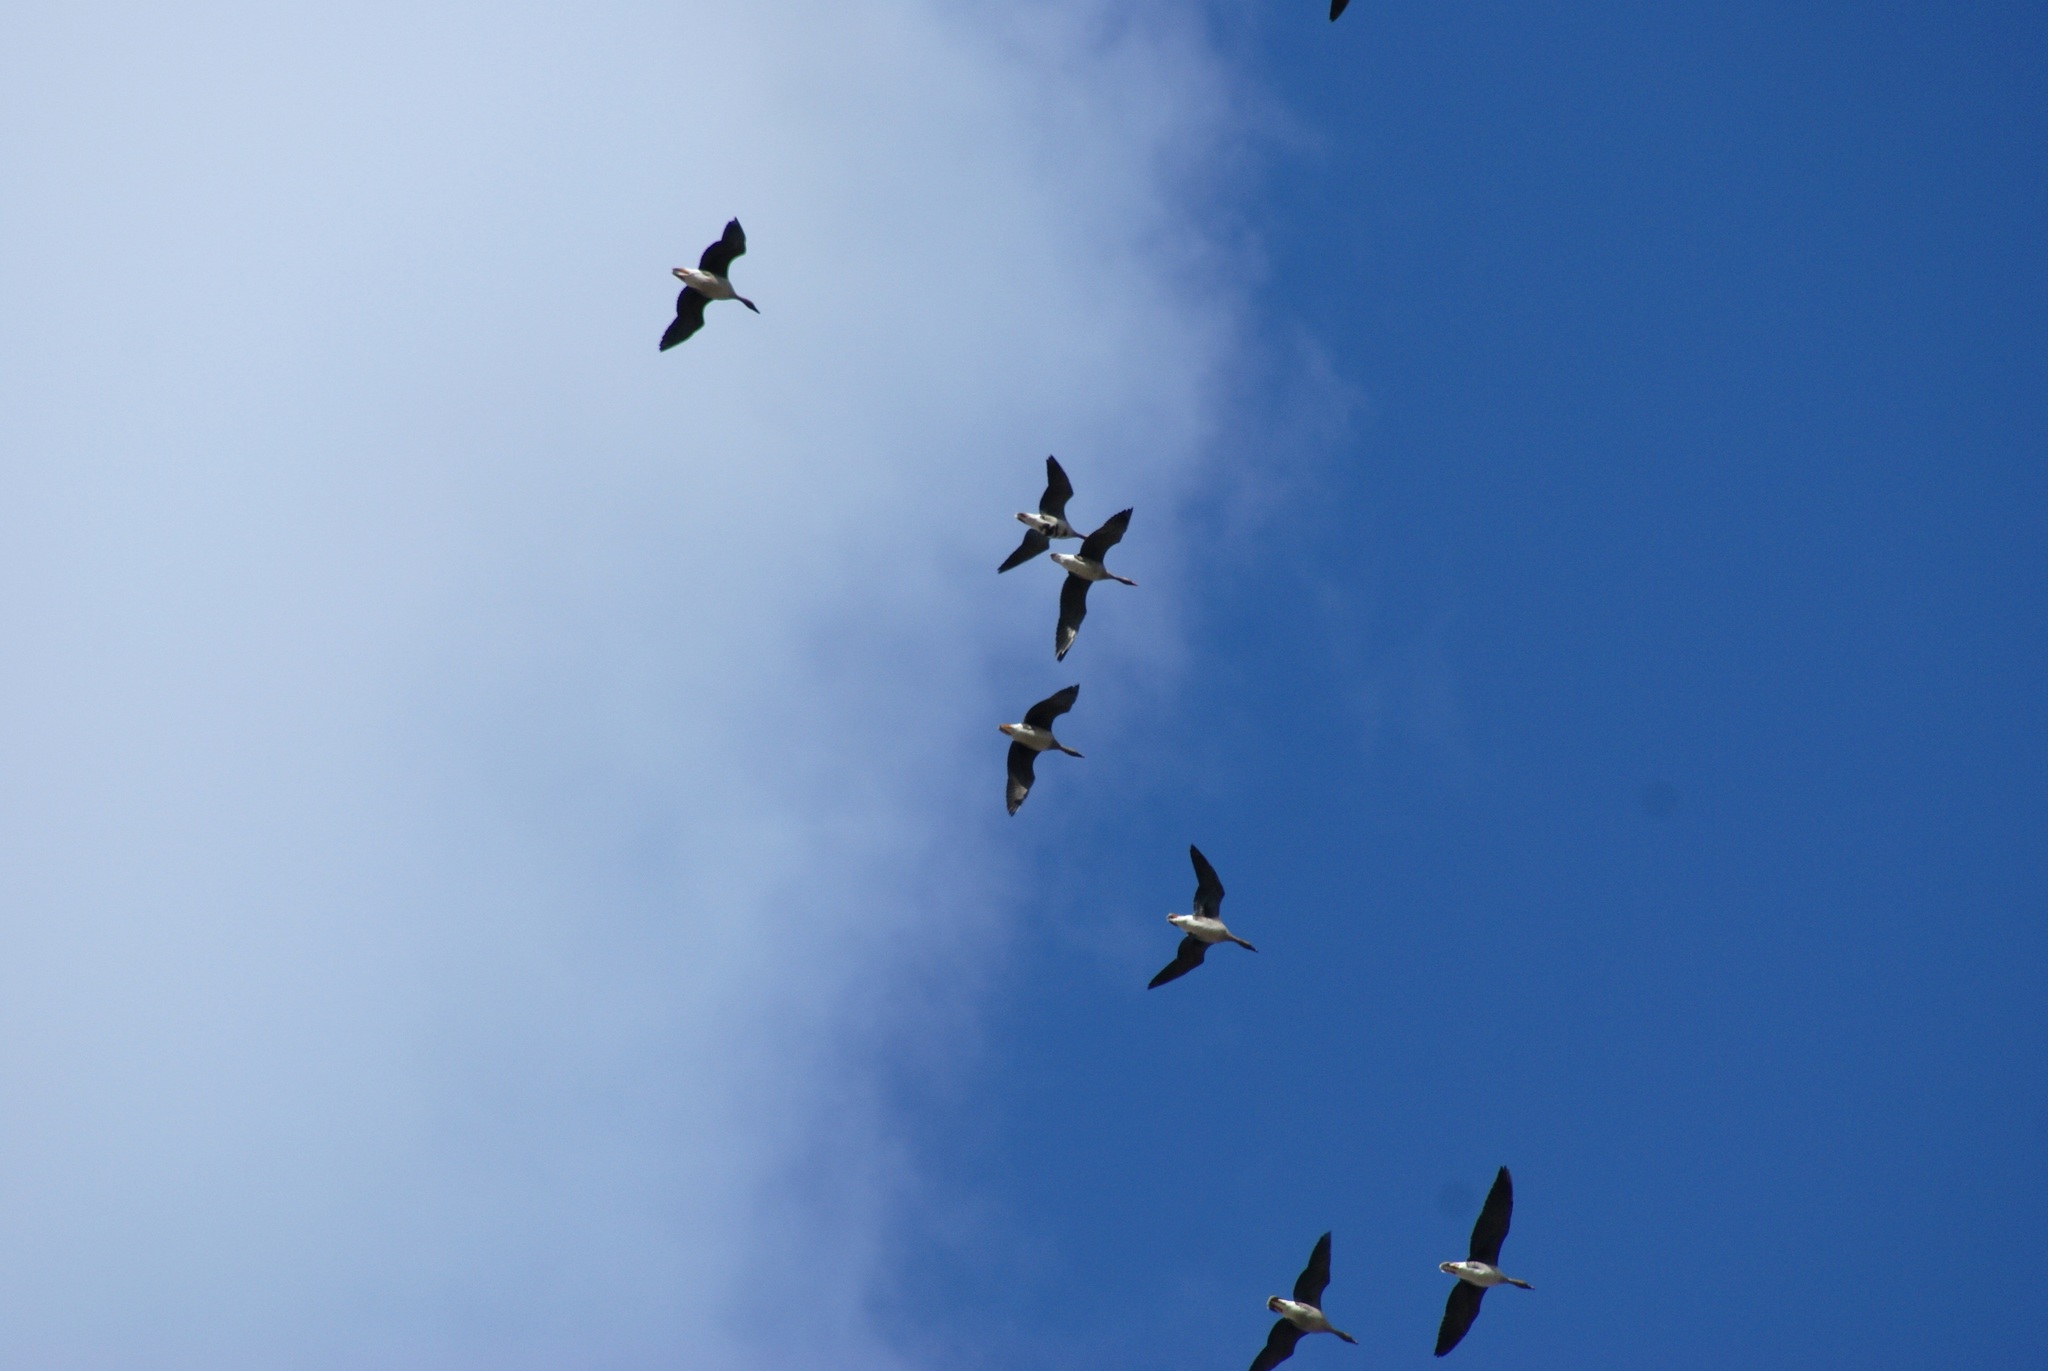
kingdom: Animalia
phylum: Chordata
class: Aves
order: Anseriformes
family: Anatidae
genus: Anser
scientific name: Anser fabalis
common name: Bean goose
